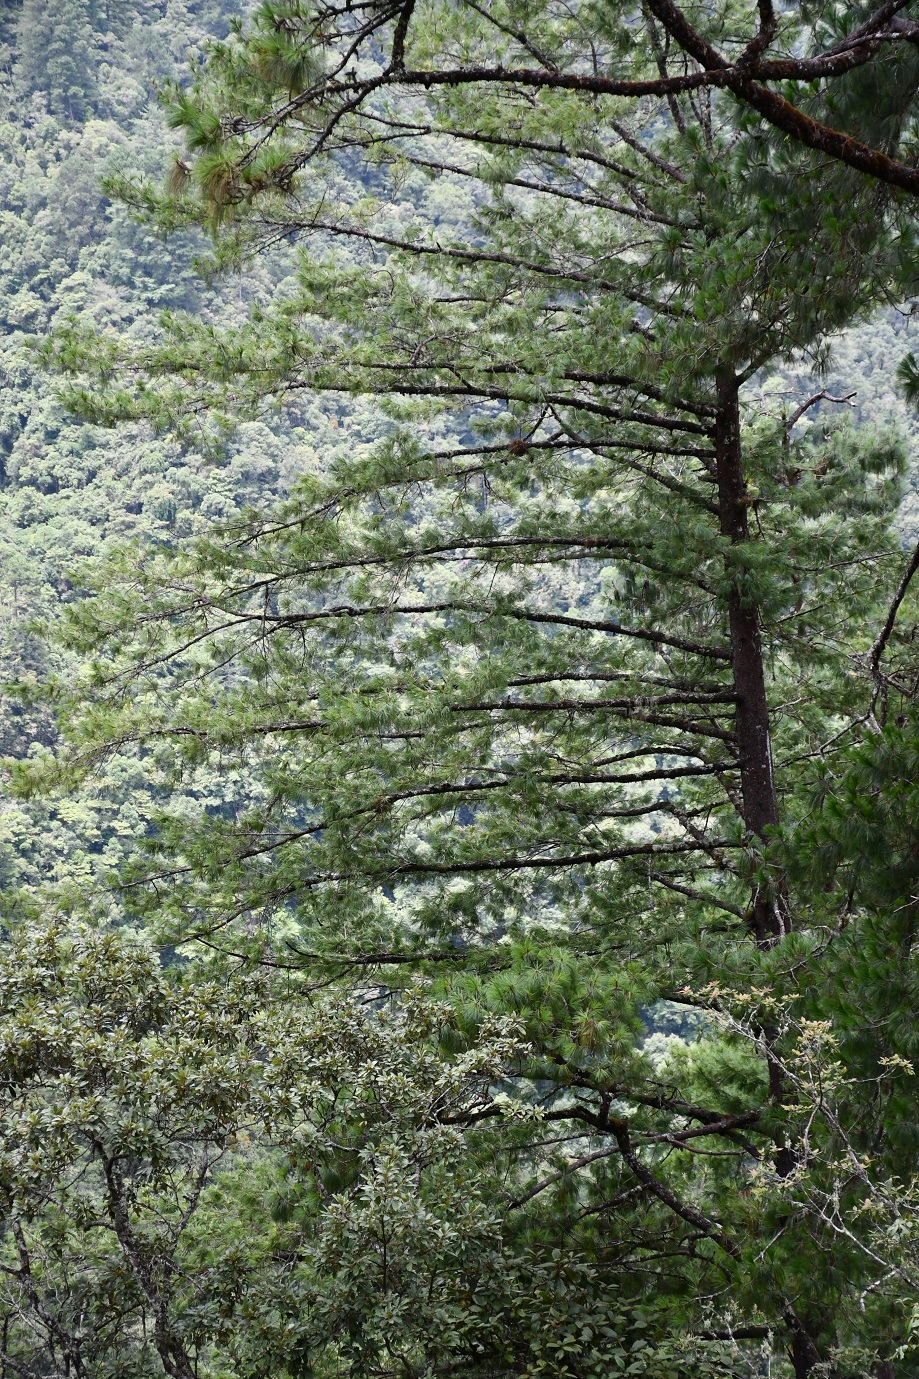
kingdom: Plantae
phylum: Tracheophyta
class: Pinopsida
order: Pinales
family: Pinaceae
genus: Pinus
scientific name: Pinus strobus
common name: Weymouth pine
